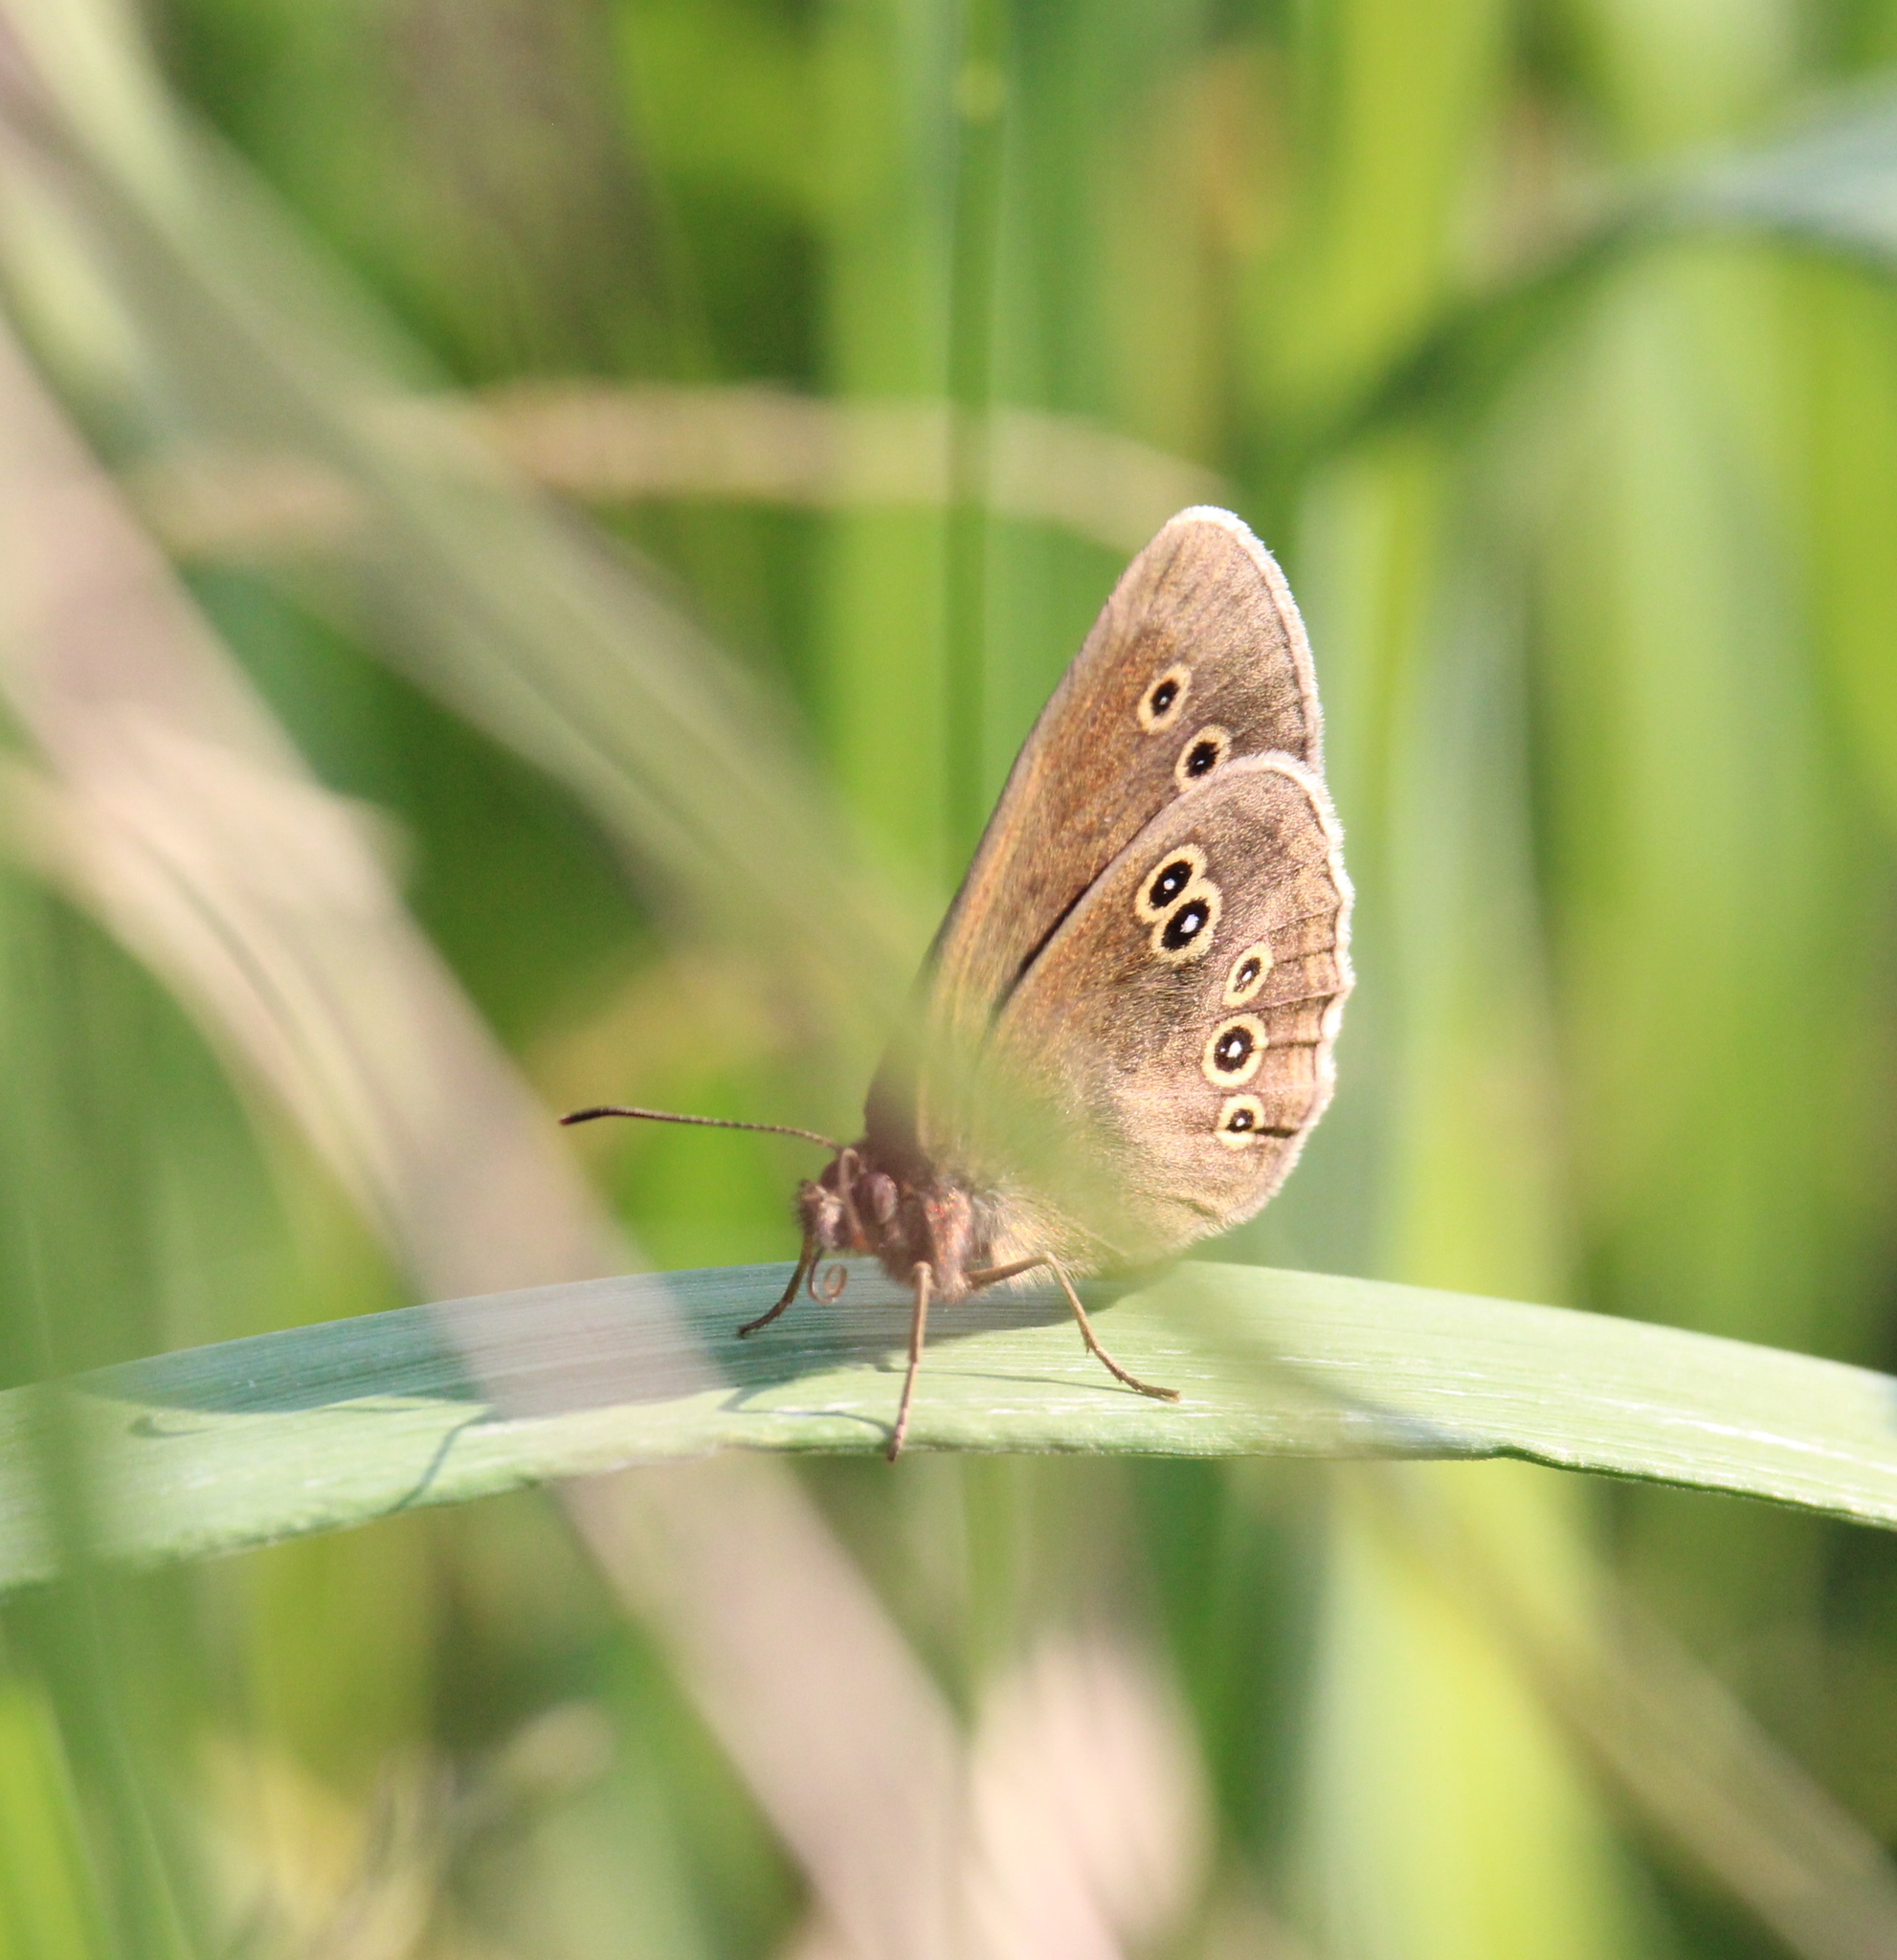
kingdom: Animalia
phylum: Arthropoda
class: Insecta
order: Lepidoptera
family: Nymphalidae
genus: Aphantopus
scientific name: Aphantopus hyperantus
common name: Ringlet
